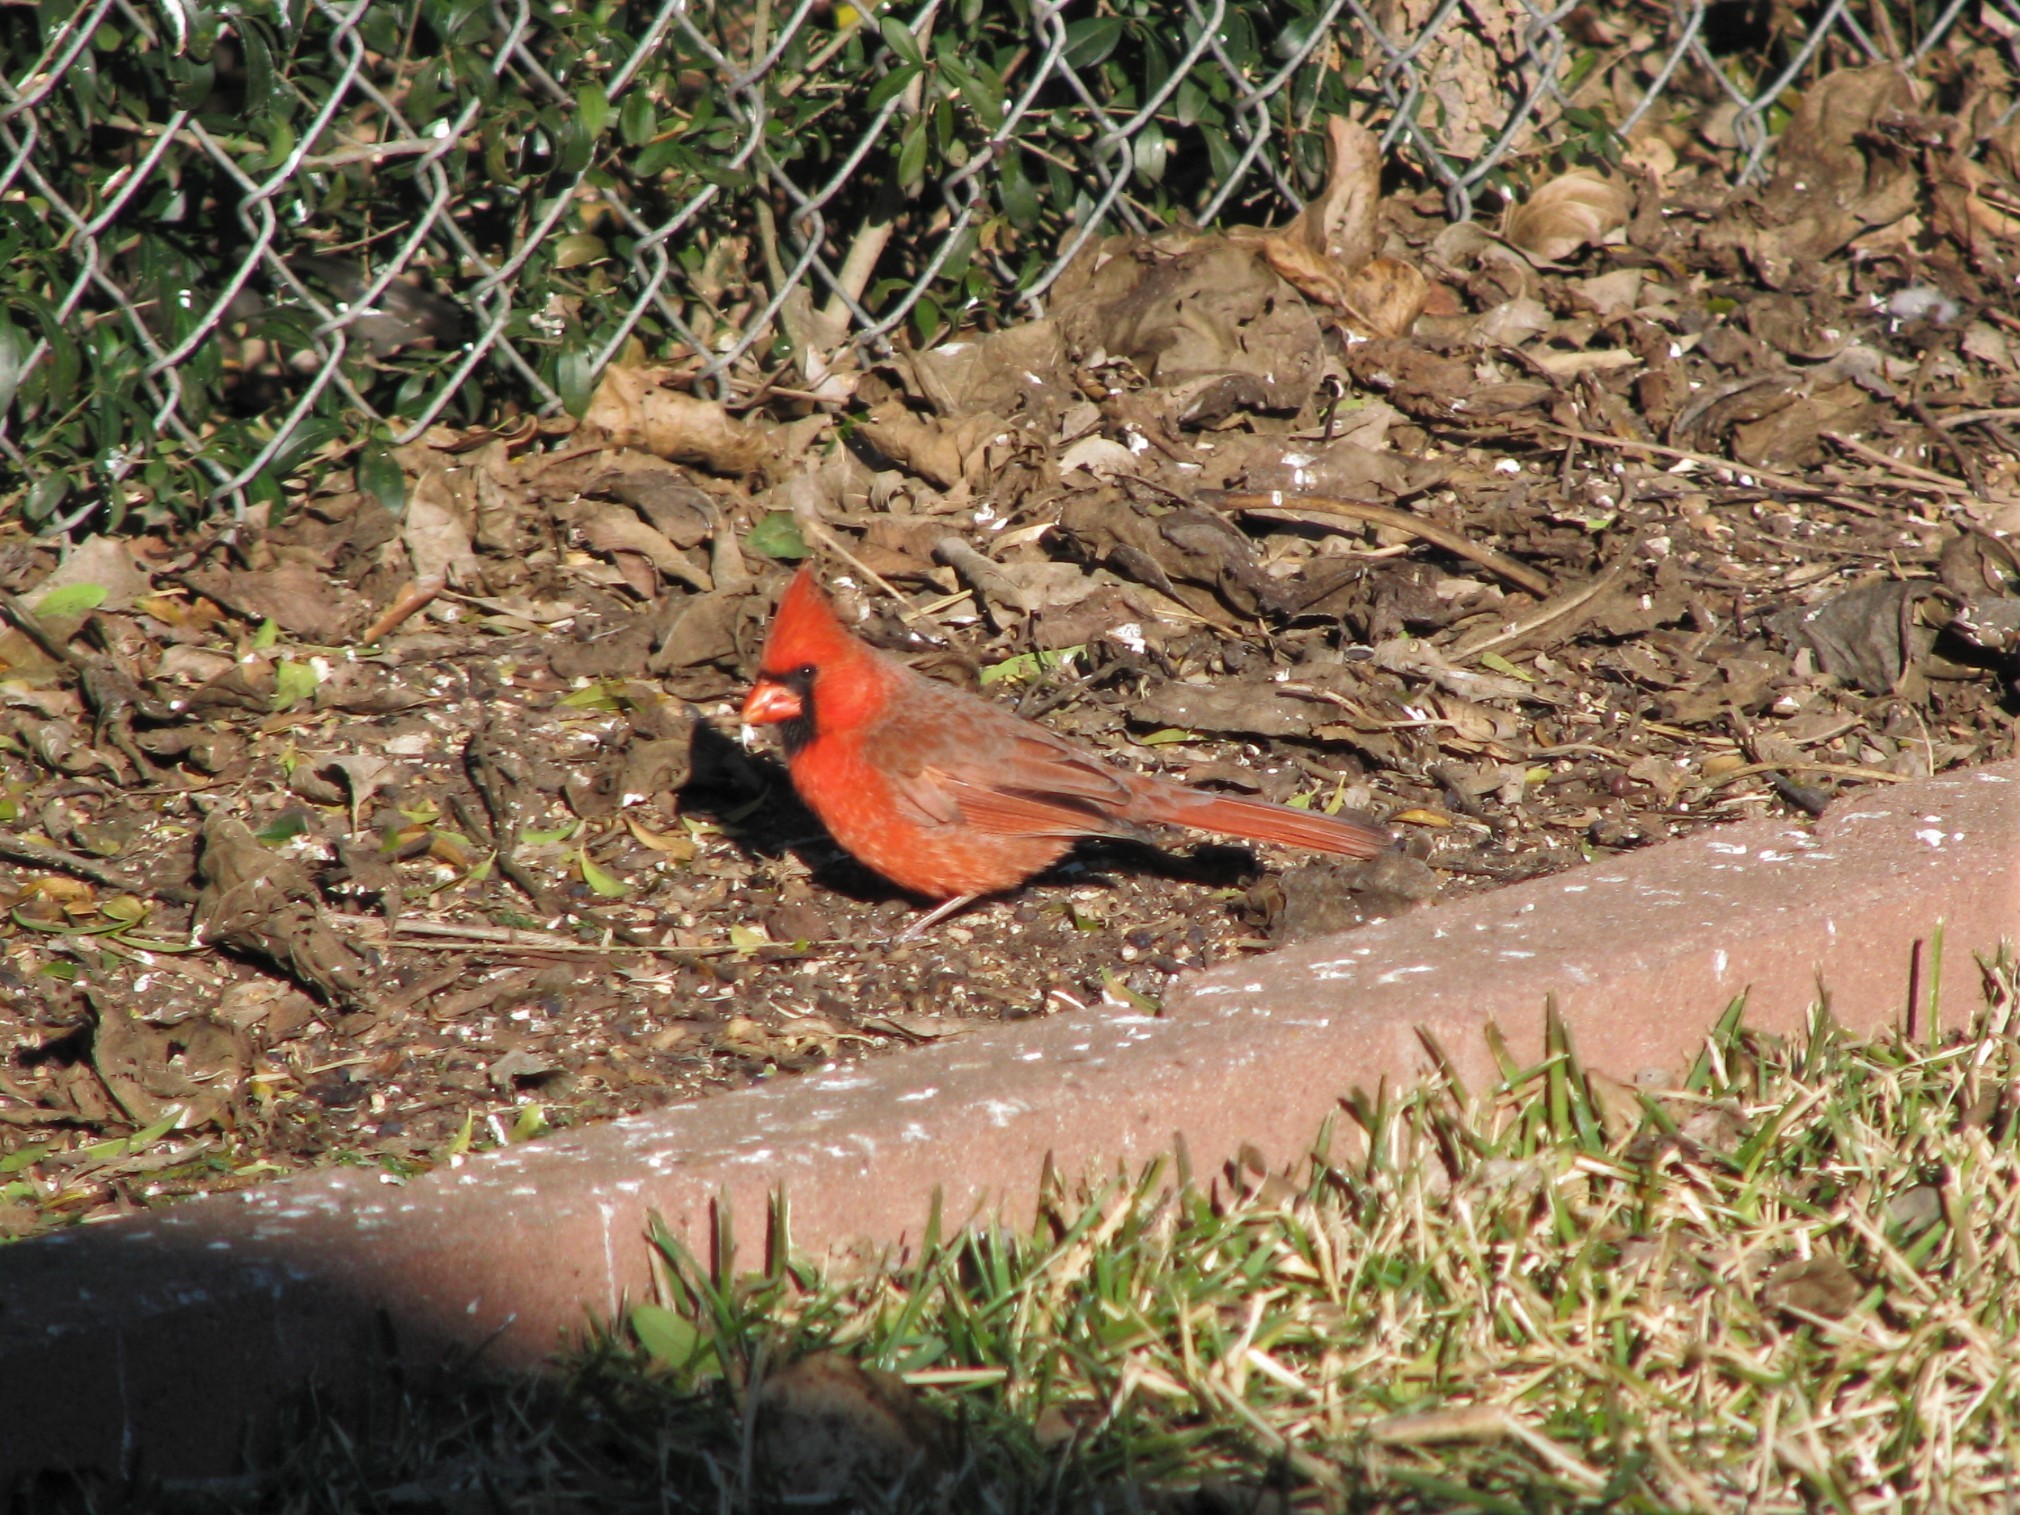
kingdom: Animalia
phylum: Chordata
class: Aves
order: Passeriformes
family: Cardinalidae
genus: Cardinalis
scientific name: Cardinalis cardinalis
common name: Northern cardinal
